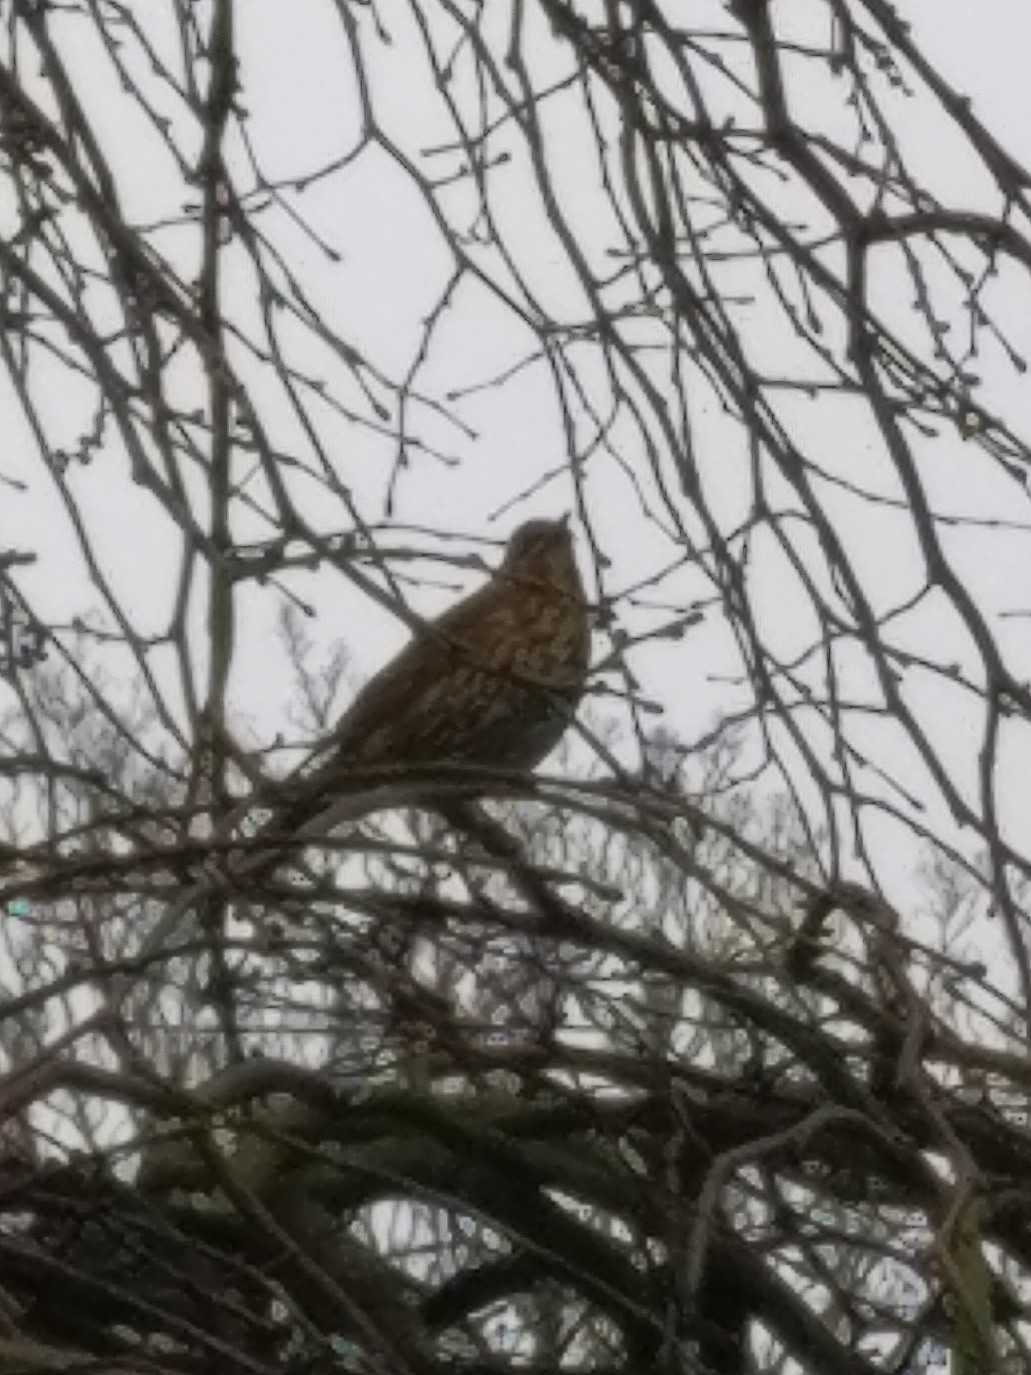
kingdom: Animalia
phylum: Chordata
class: Aves
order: Passeriformes
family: Turdidae
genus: Turdus
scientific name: Turdus philomelos
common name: Song thrush
